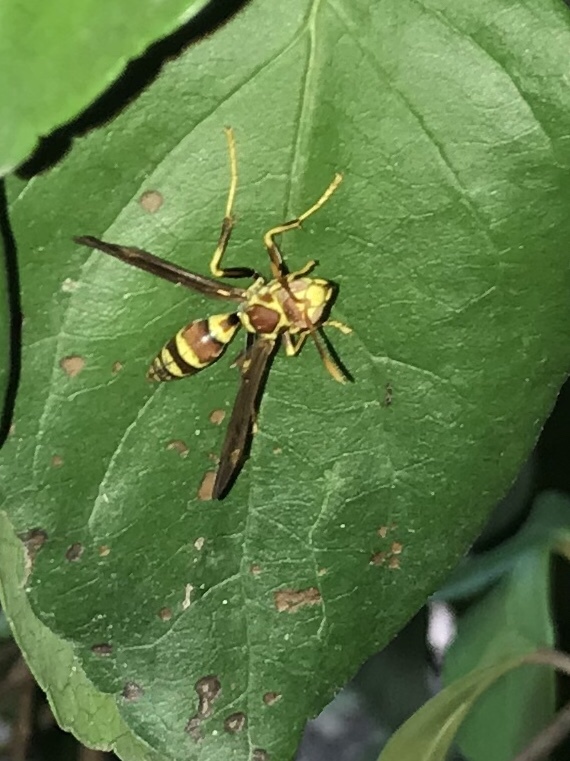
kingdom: Animalia
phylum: Arthropoda
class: Insecta
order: Hymenoptera
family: Eumenidae
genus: Polistes
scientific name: Polistes exclamans
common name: Paper wasp
